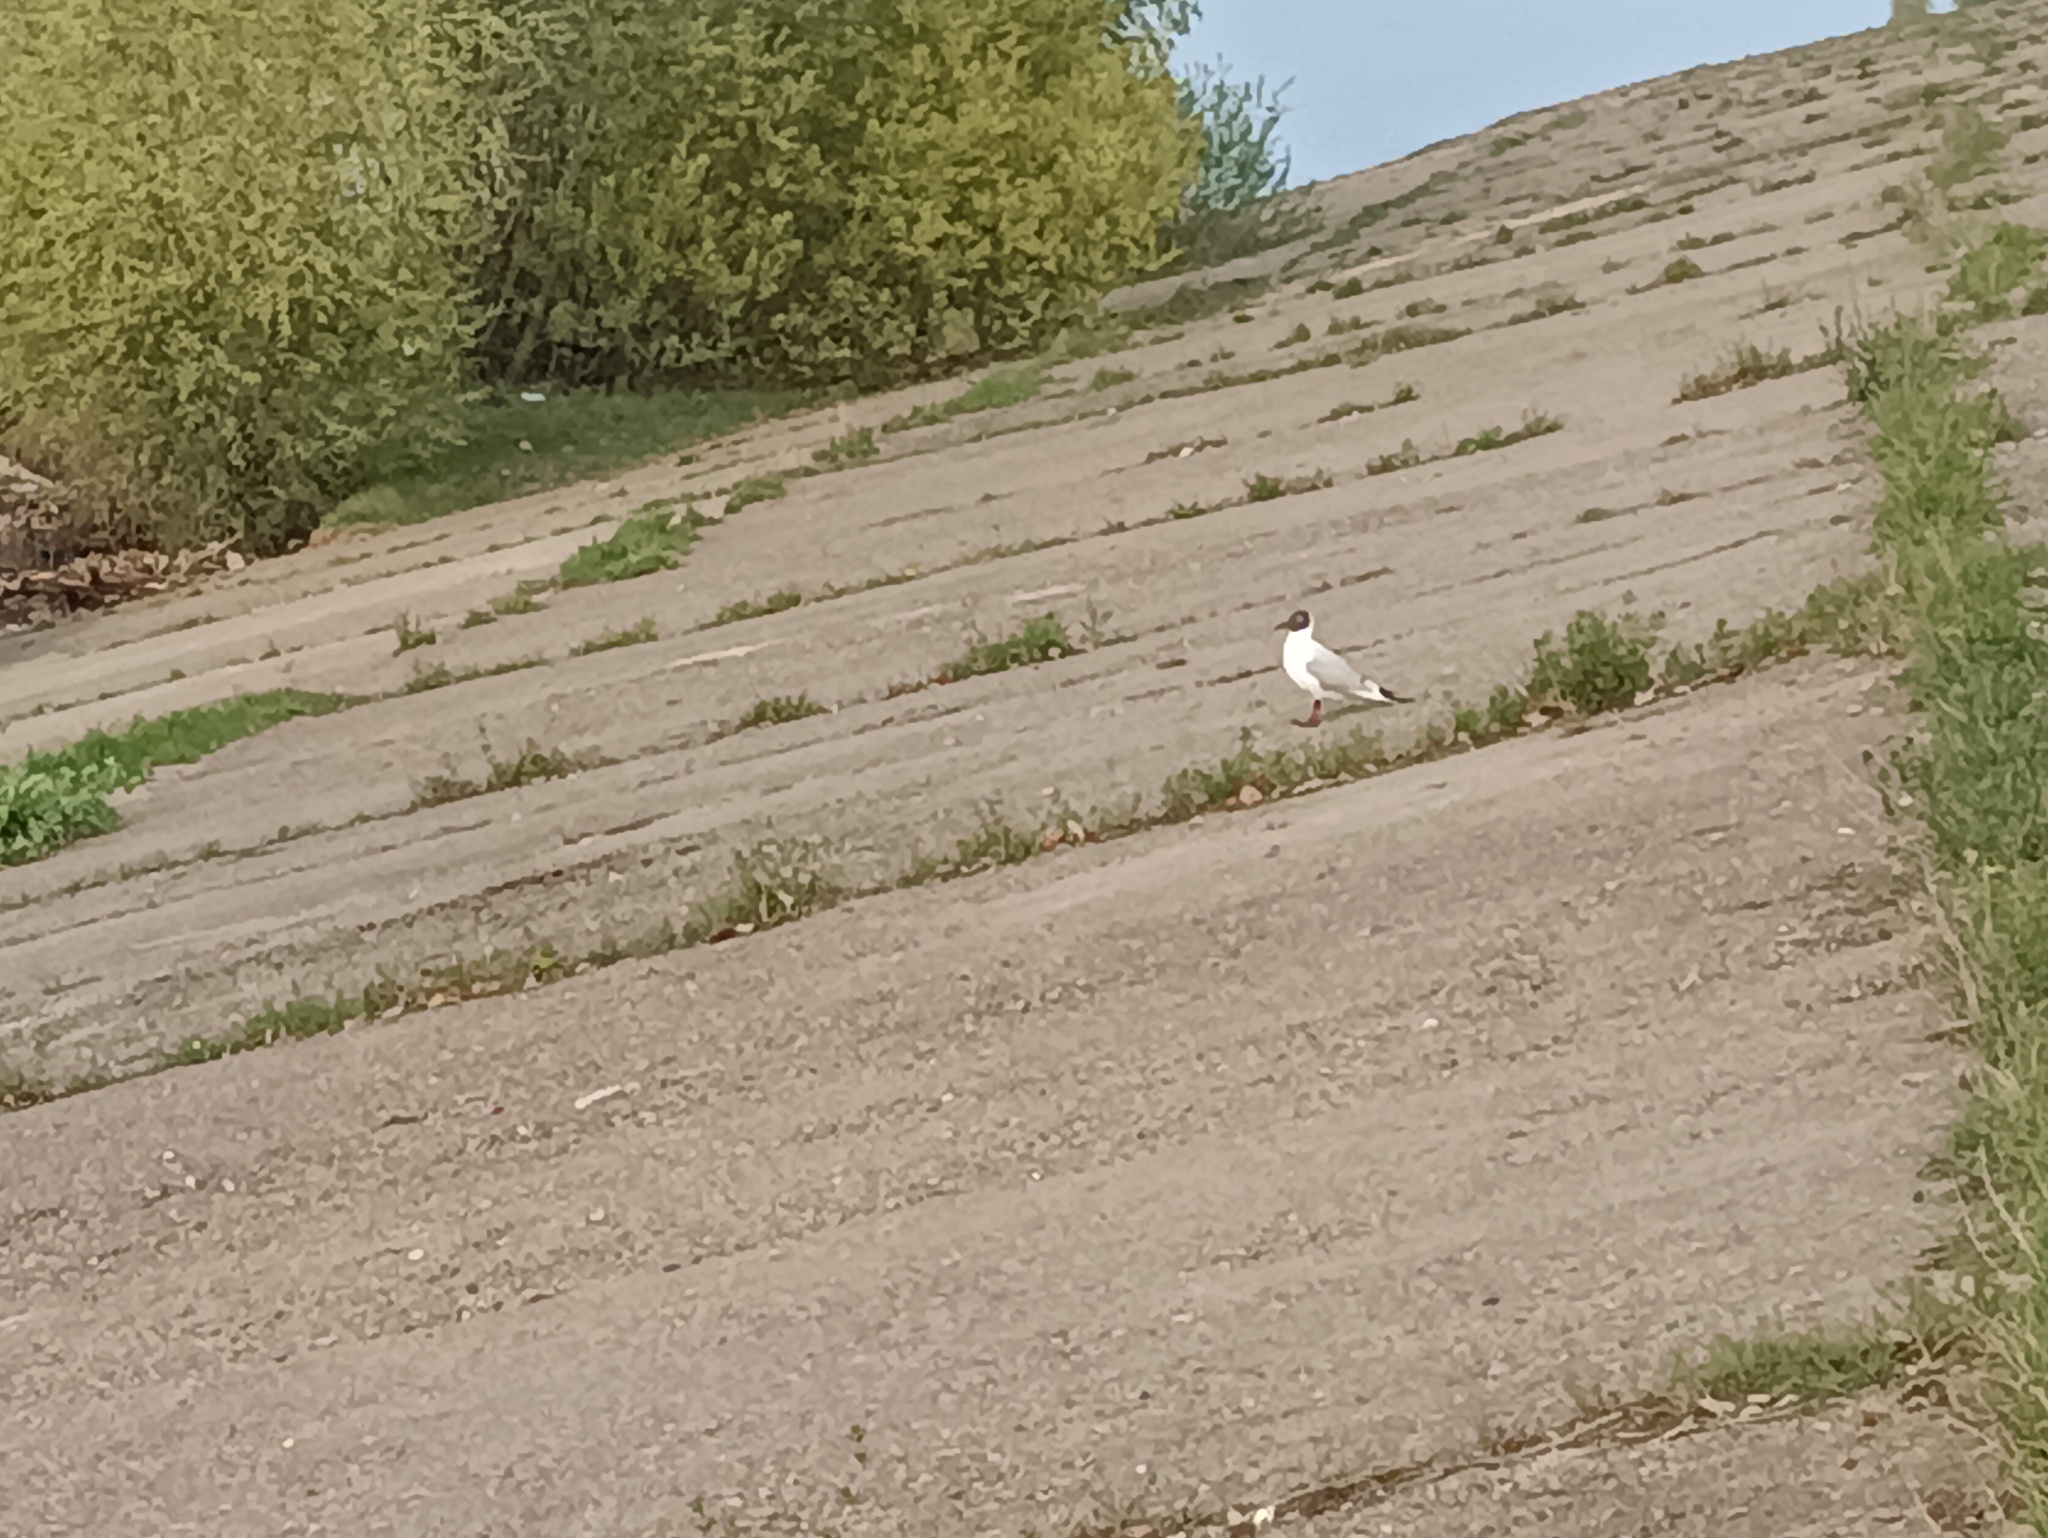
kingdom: Animalia
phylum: Chordata
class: Aves
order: Charadriiformes
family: Laridae
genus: Chroicocephalus
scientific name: Chroicocephalus ridibundus
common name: Black-headed gull
